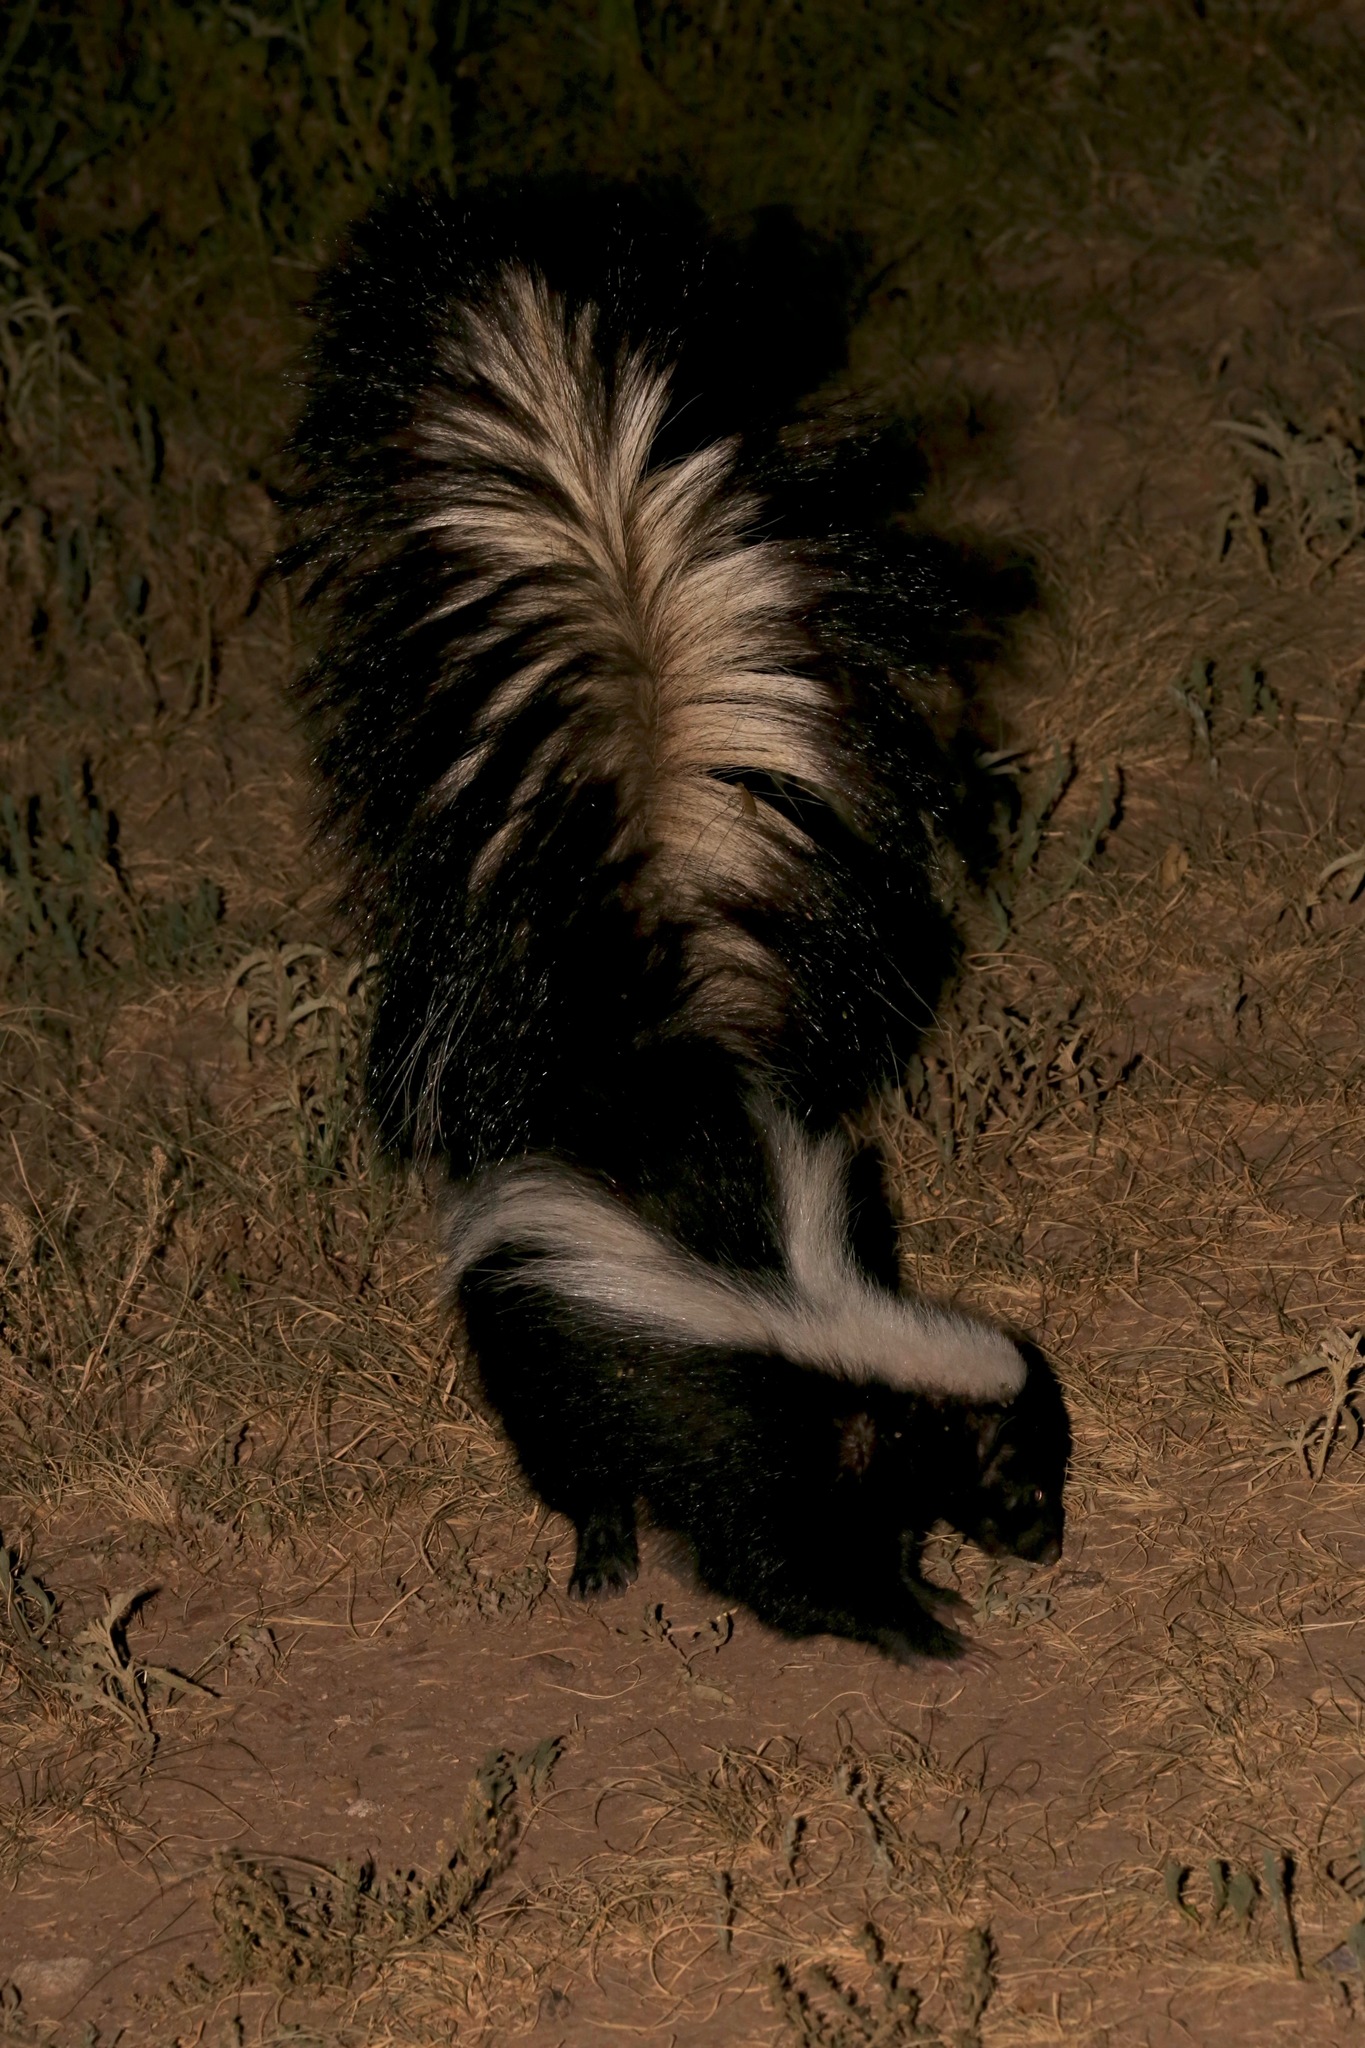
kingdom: Animalia
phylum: Chordata
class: Mammalia
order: Carnivora
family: Mephitidae
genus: Mephitis
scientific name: Mephitis mephitis
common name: Striped skunk
